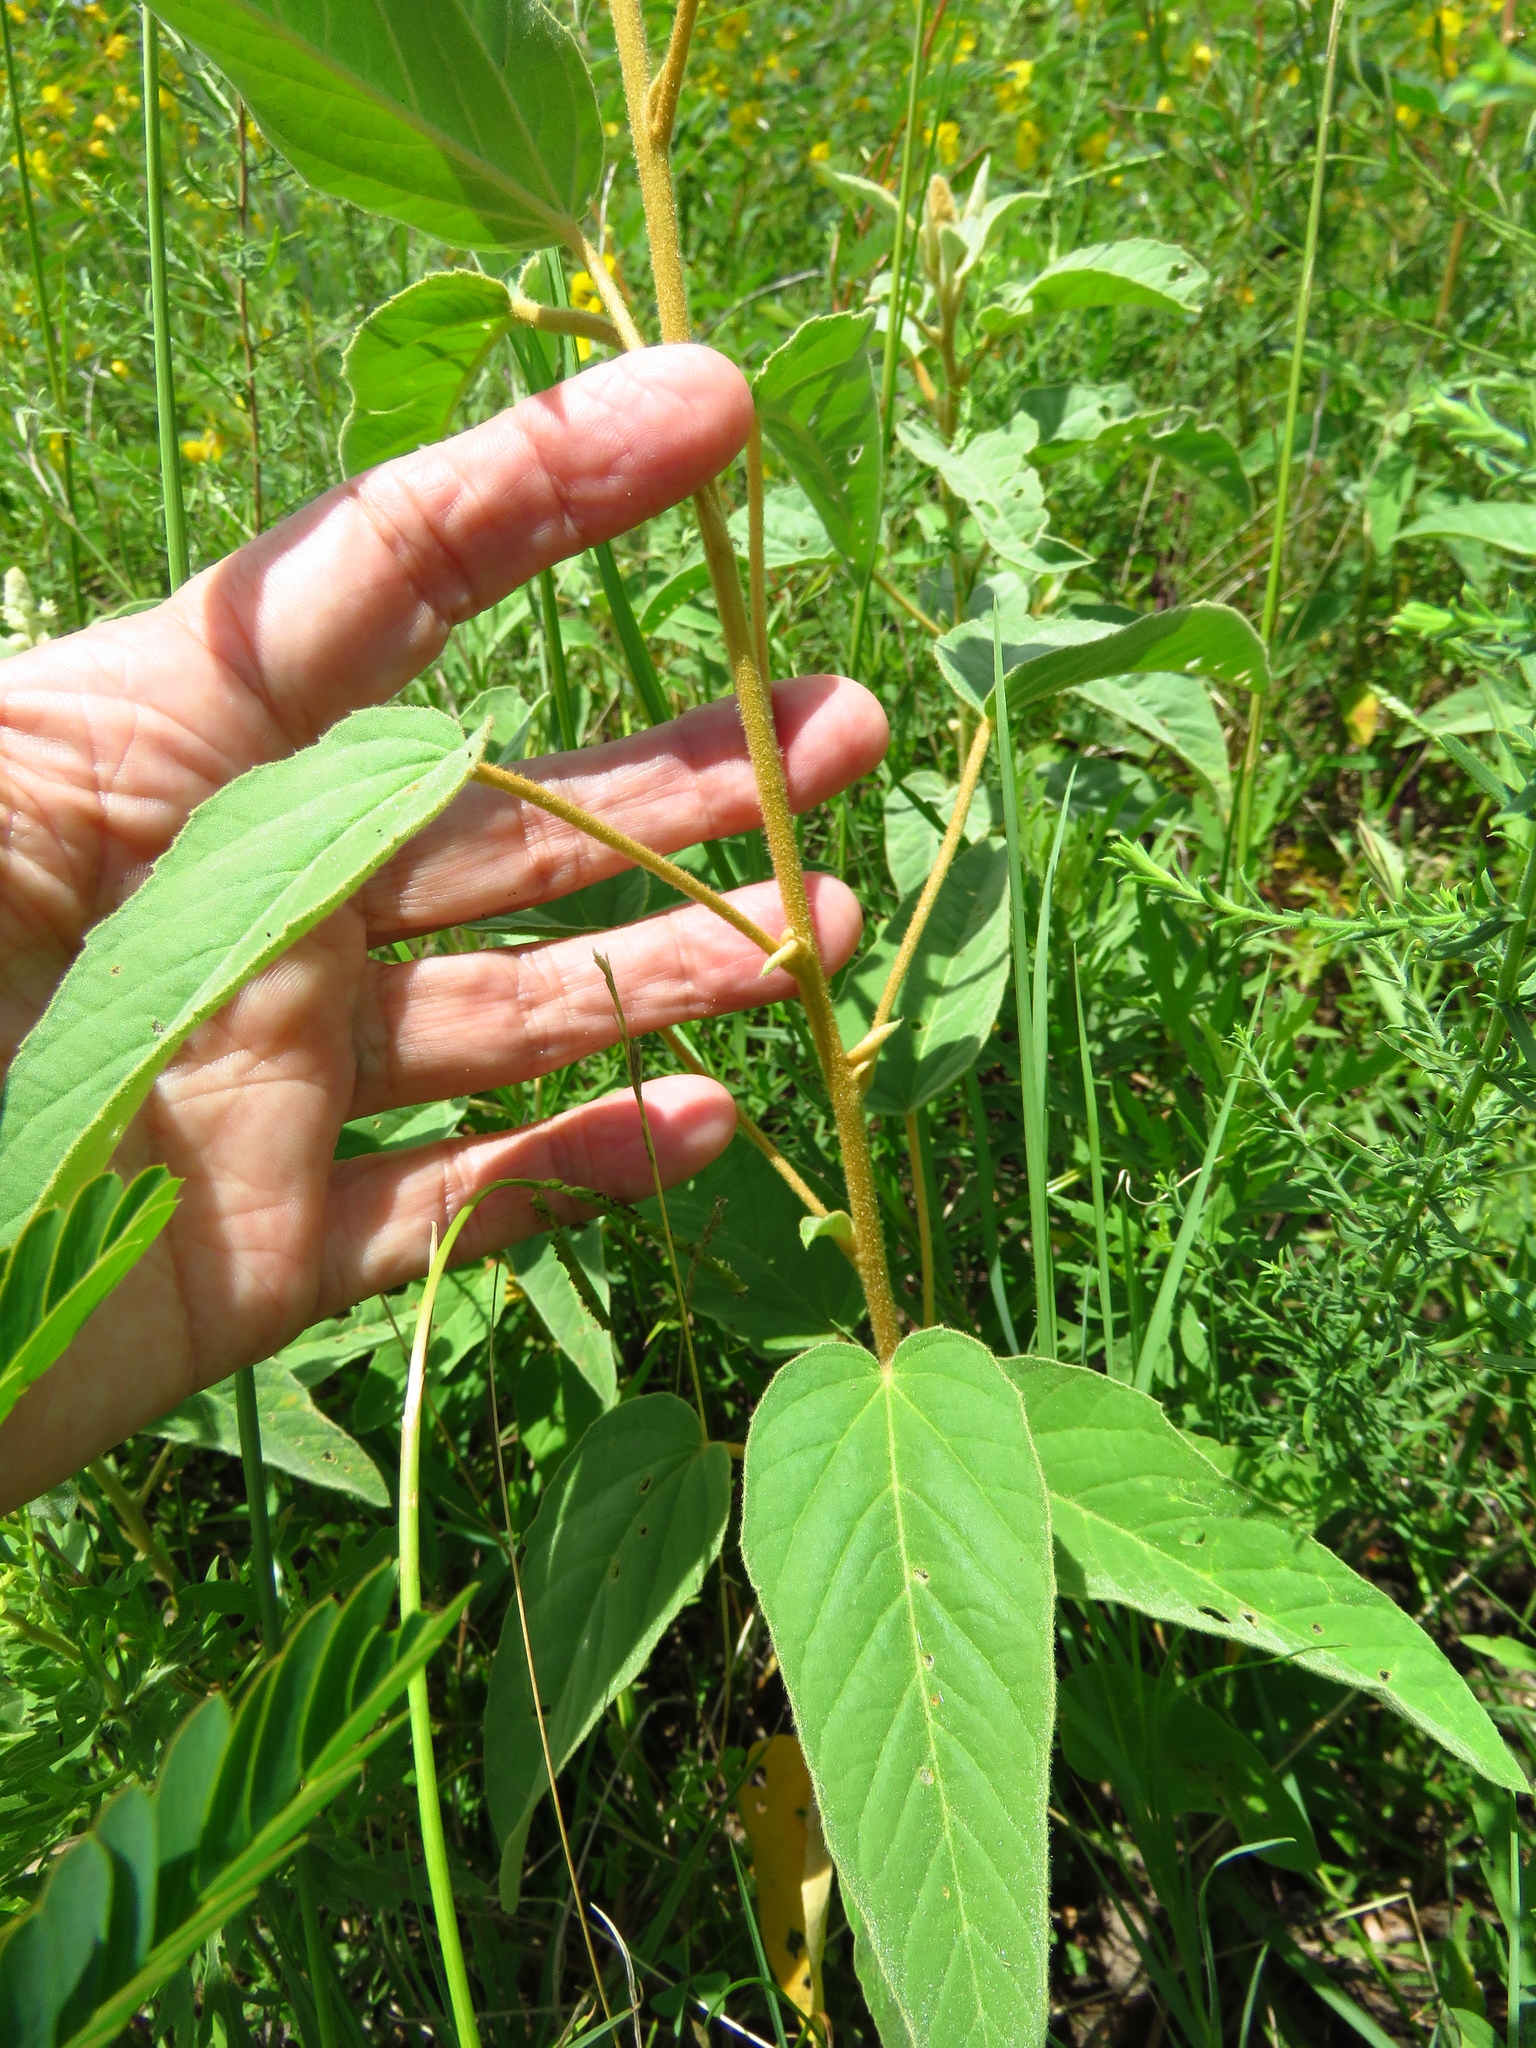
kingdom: Plantae
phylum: Tracheophyta
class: Magnoliopsida
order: Malpighiales
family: Euphorbiaceae
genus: Croton
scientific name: Croton lindheimeri
